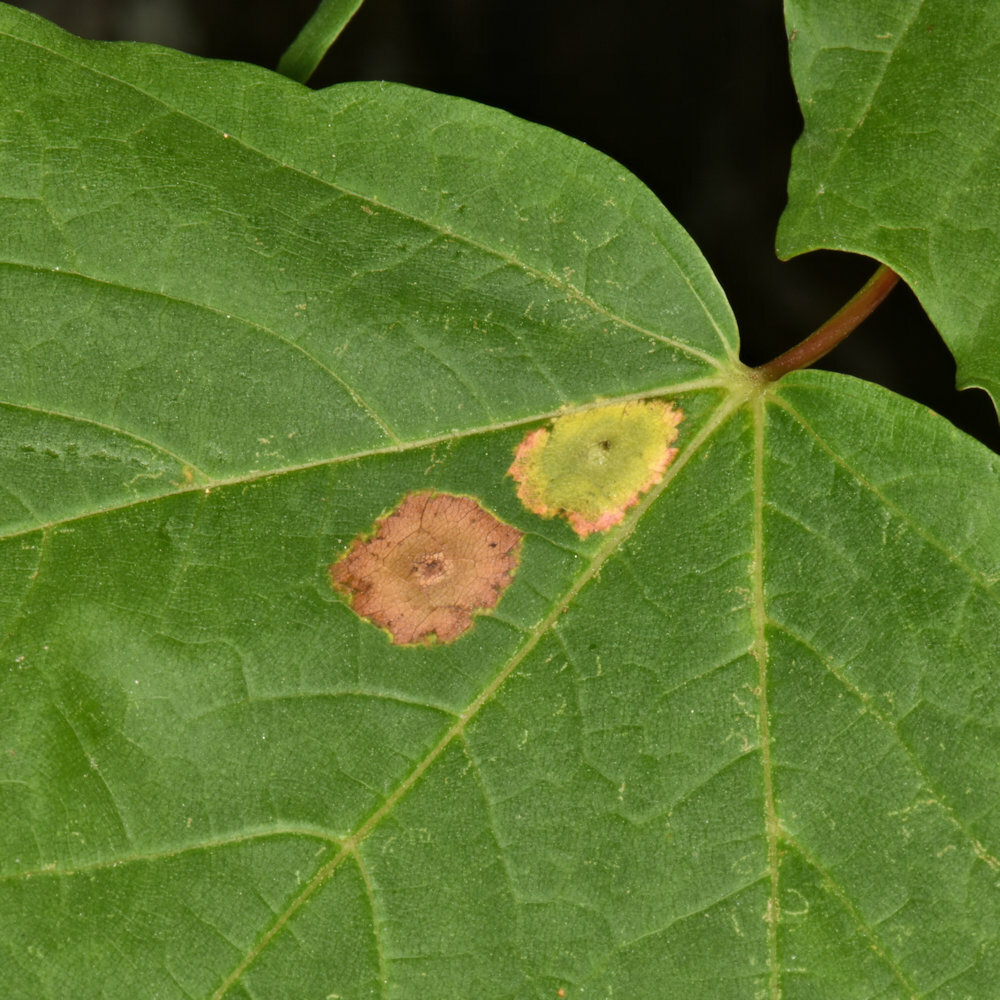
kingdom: Animalia
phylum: Arthropoda
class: Insecta
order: Diptera
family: Cecidomyiidae
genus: Acericecis
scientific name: Acericecis ocellaris
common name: Ocellate gall midge
